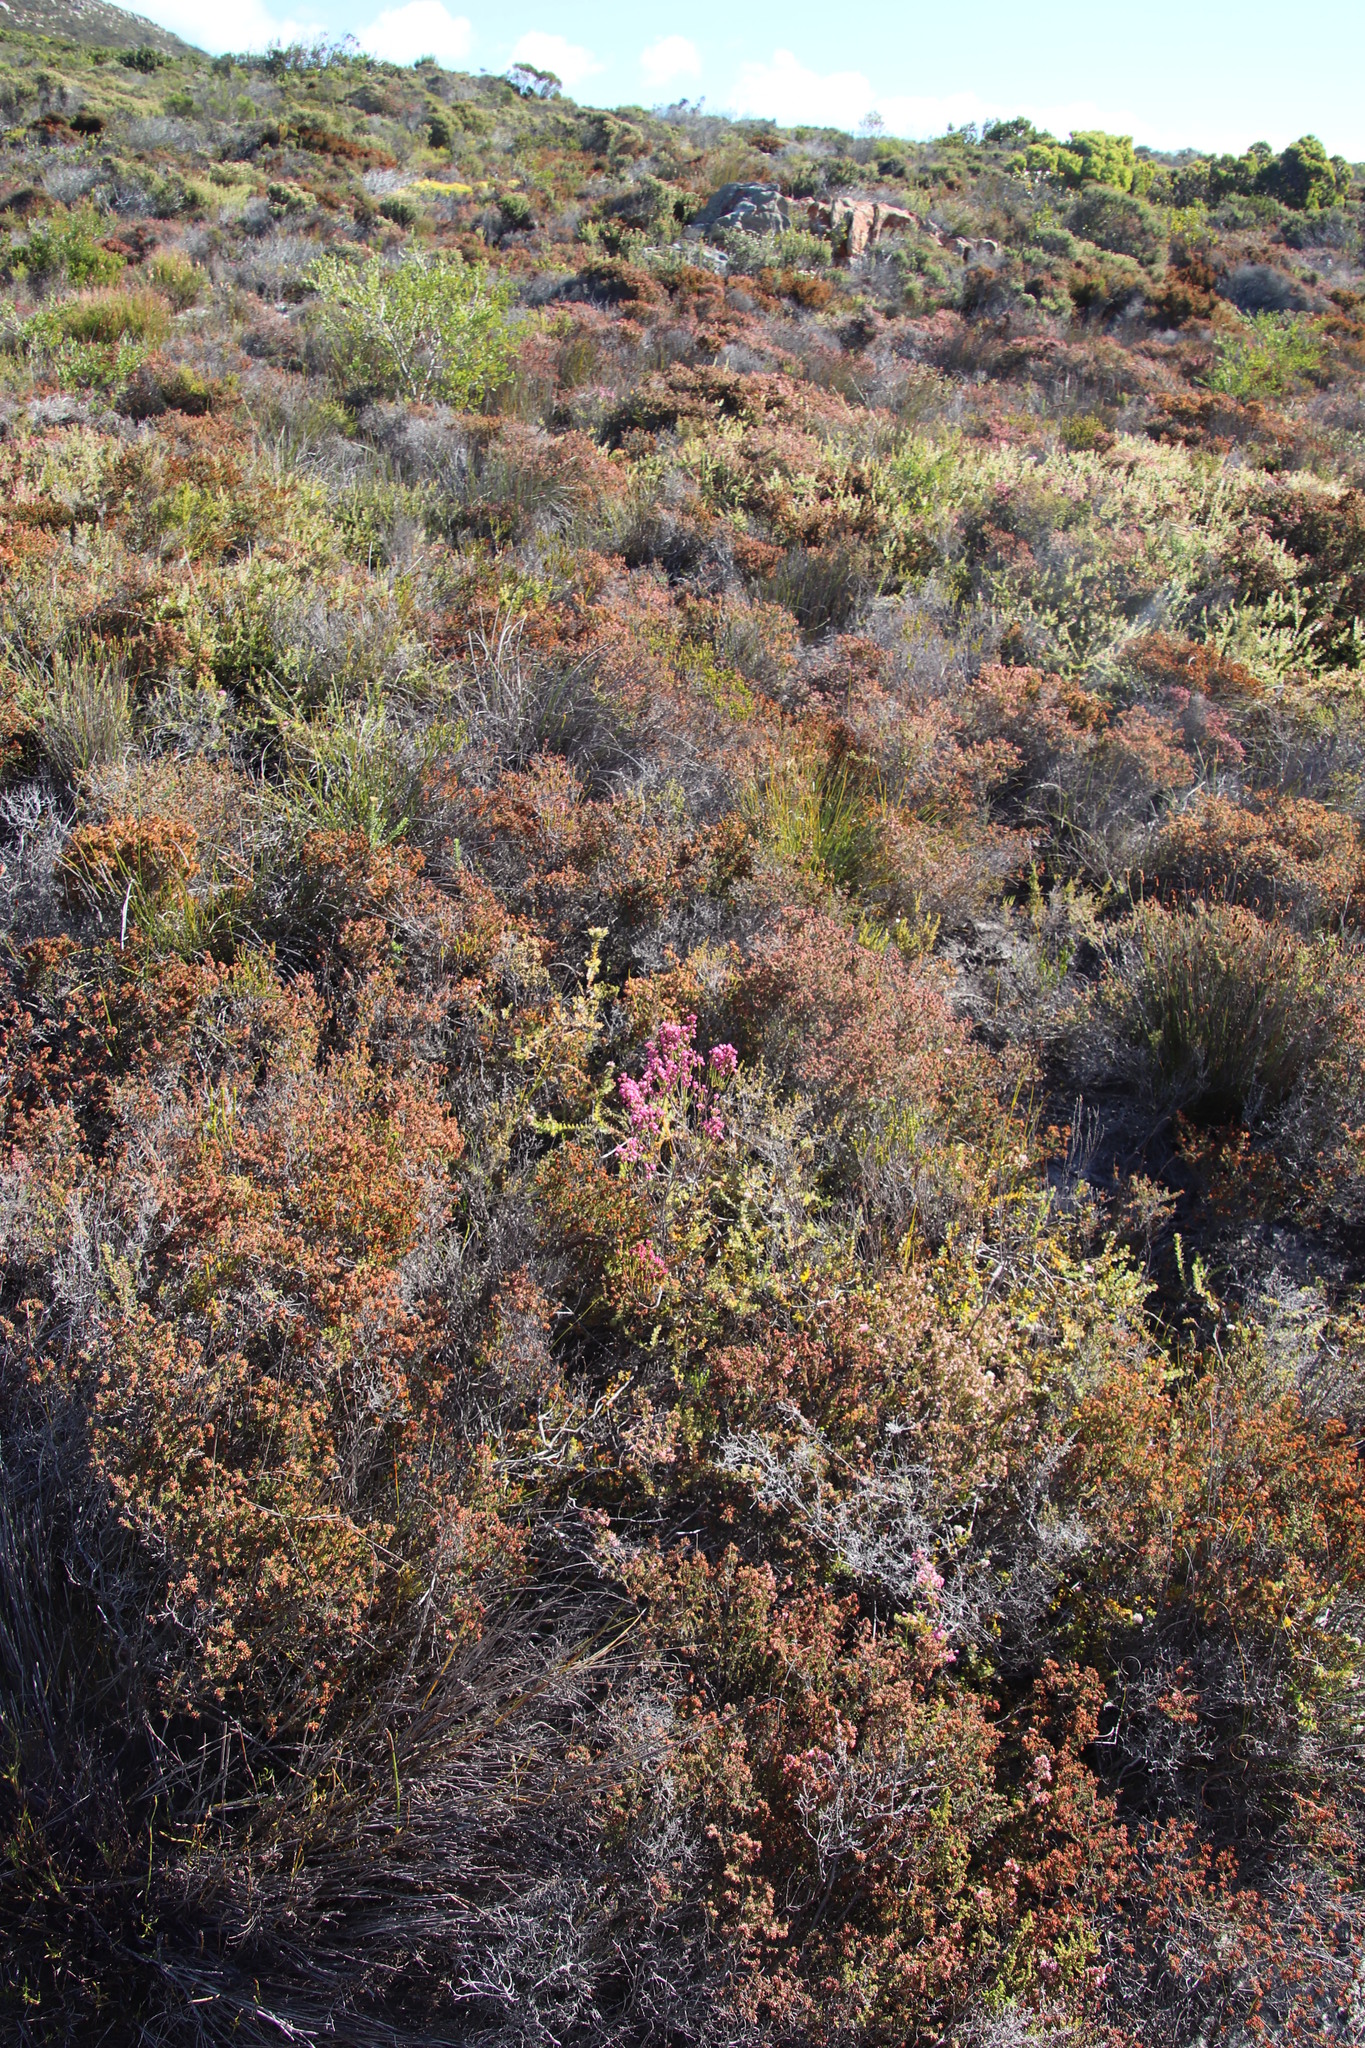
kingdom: Plantae
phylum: Tracheophyta
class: Magnoliopsida
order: Ericales
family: Ericaceae
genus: Erica
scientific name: Erica corifolia
